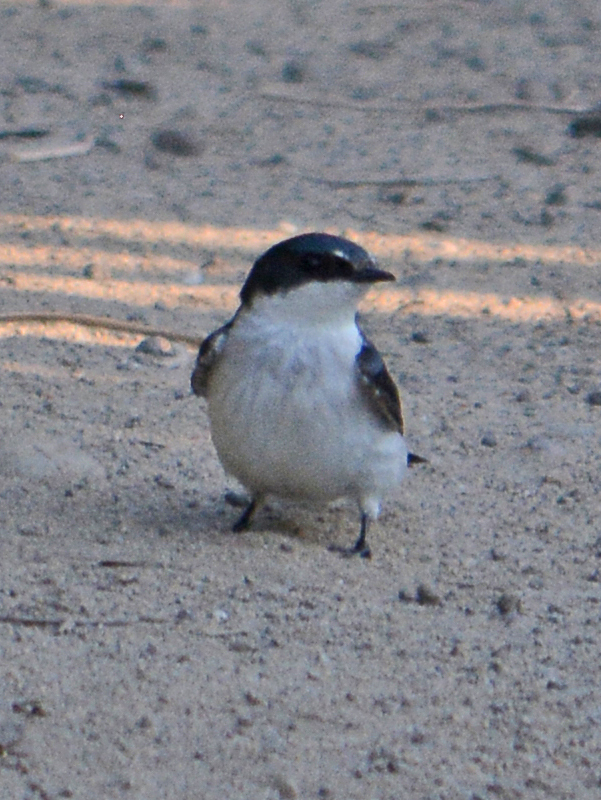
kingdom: Animalia
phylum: Chordata
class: Aves
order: Passeriformes
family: Hirundinidae
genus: Tachycineta
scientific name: Tachycineta albilinea
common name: Mangrove swallow
